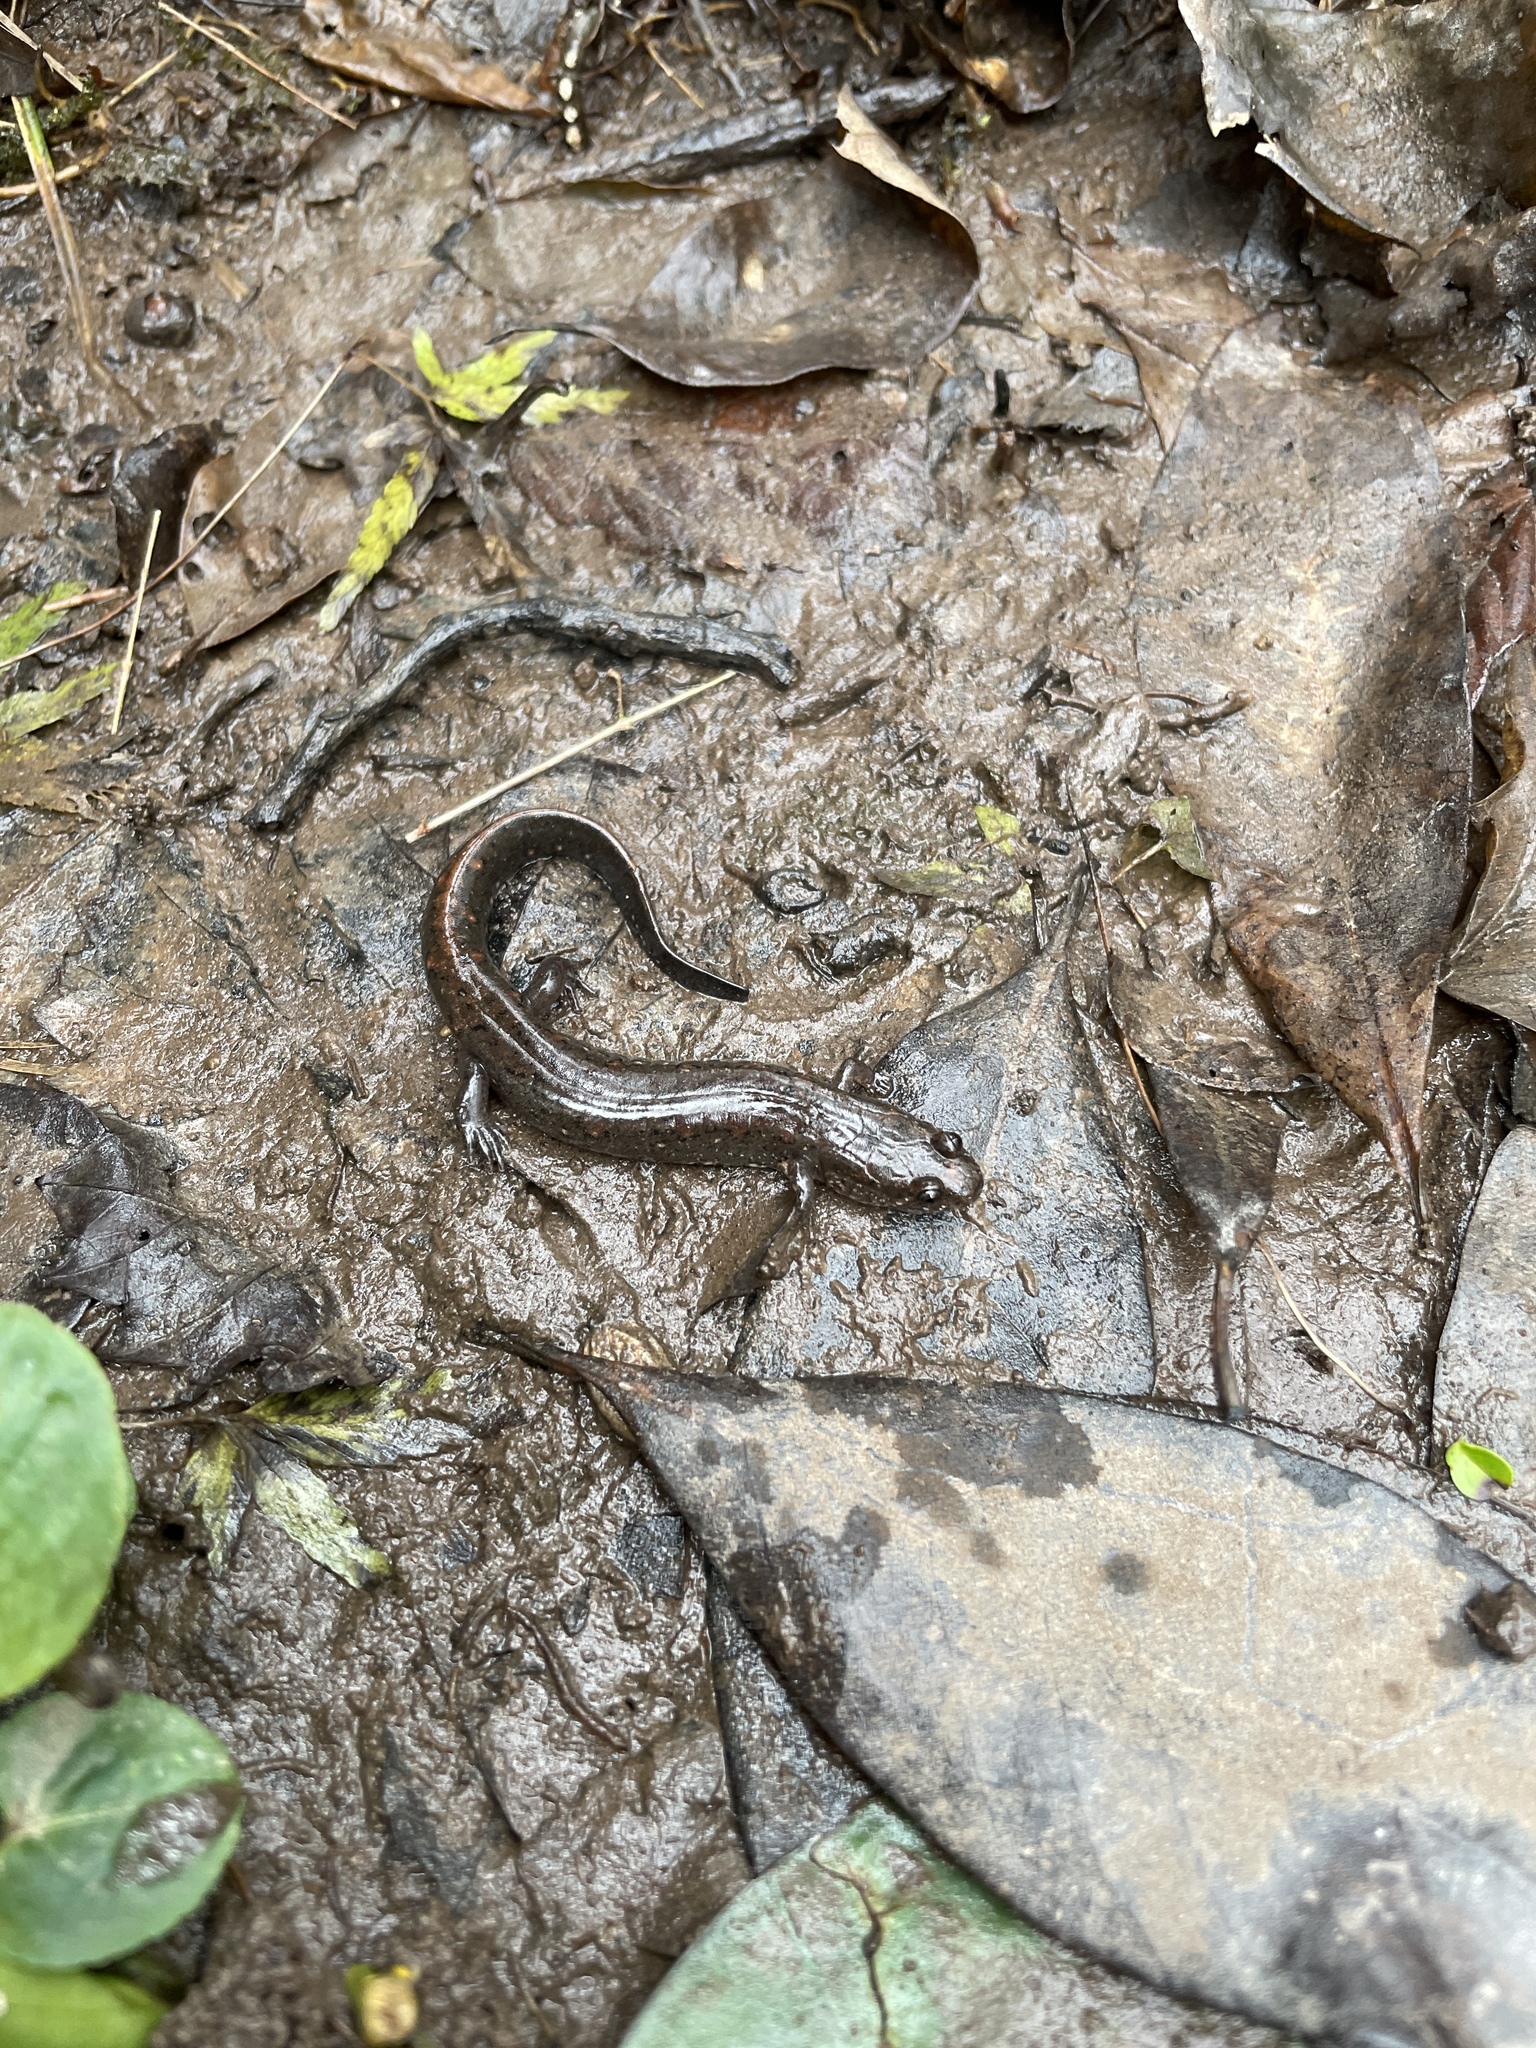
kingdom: Animalia
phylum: Chordata
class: Amphibia
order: Caudata
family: Plethodontidae
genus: Desmognathus
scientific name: Desmognathus valentinei
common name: Valentine's southern dusky salamander
